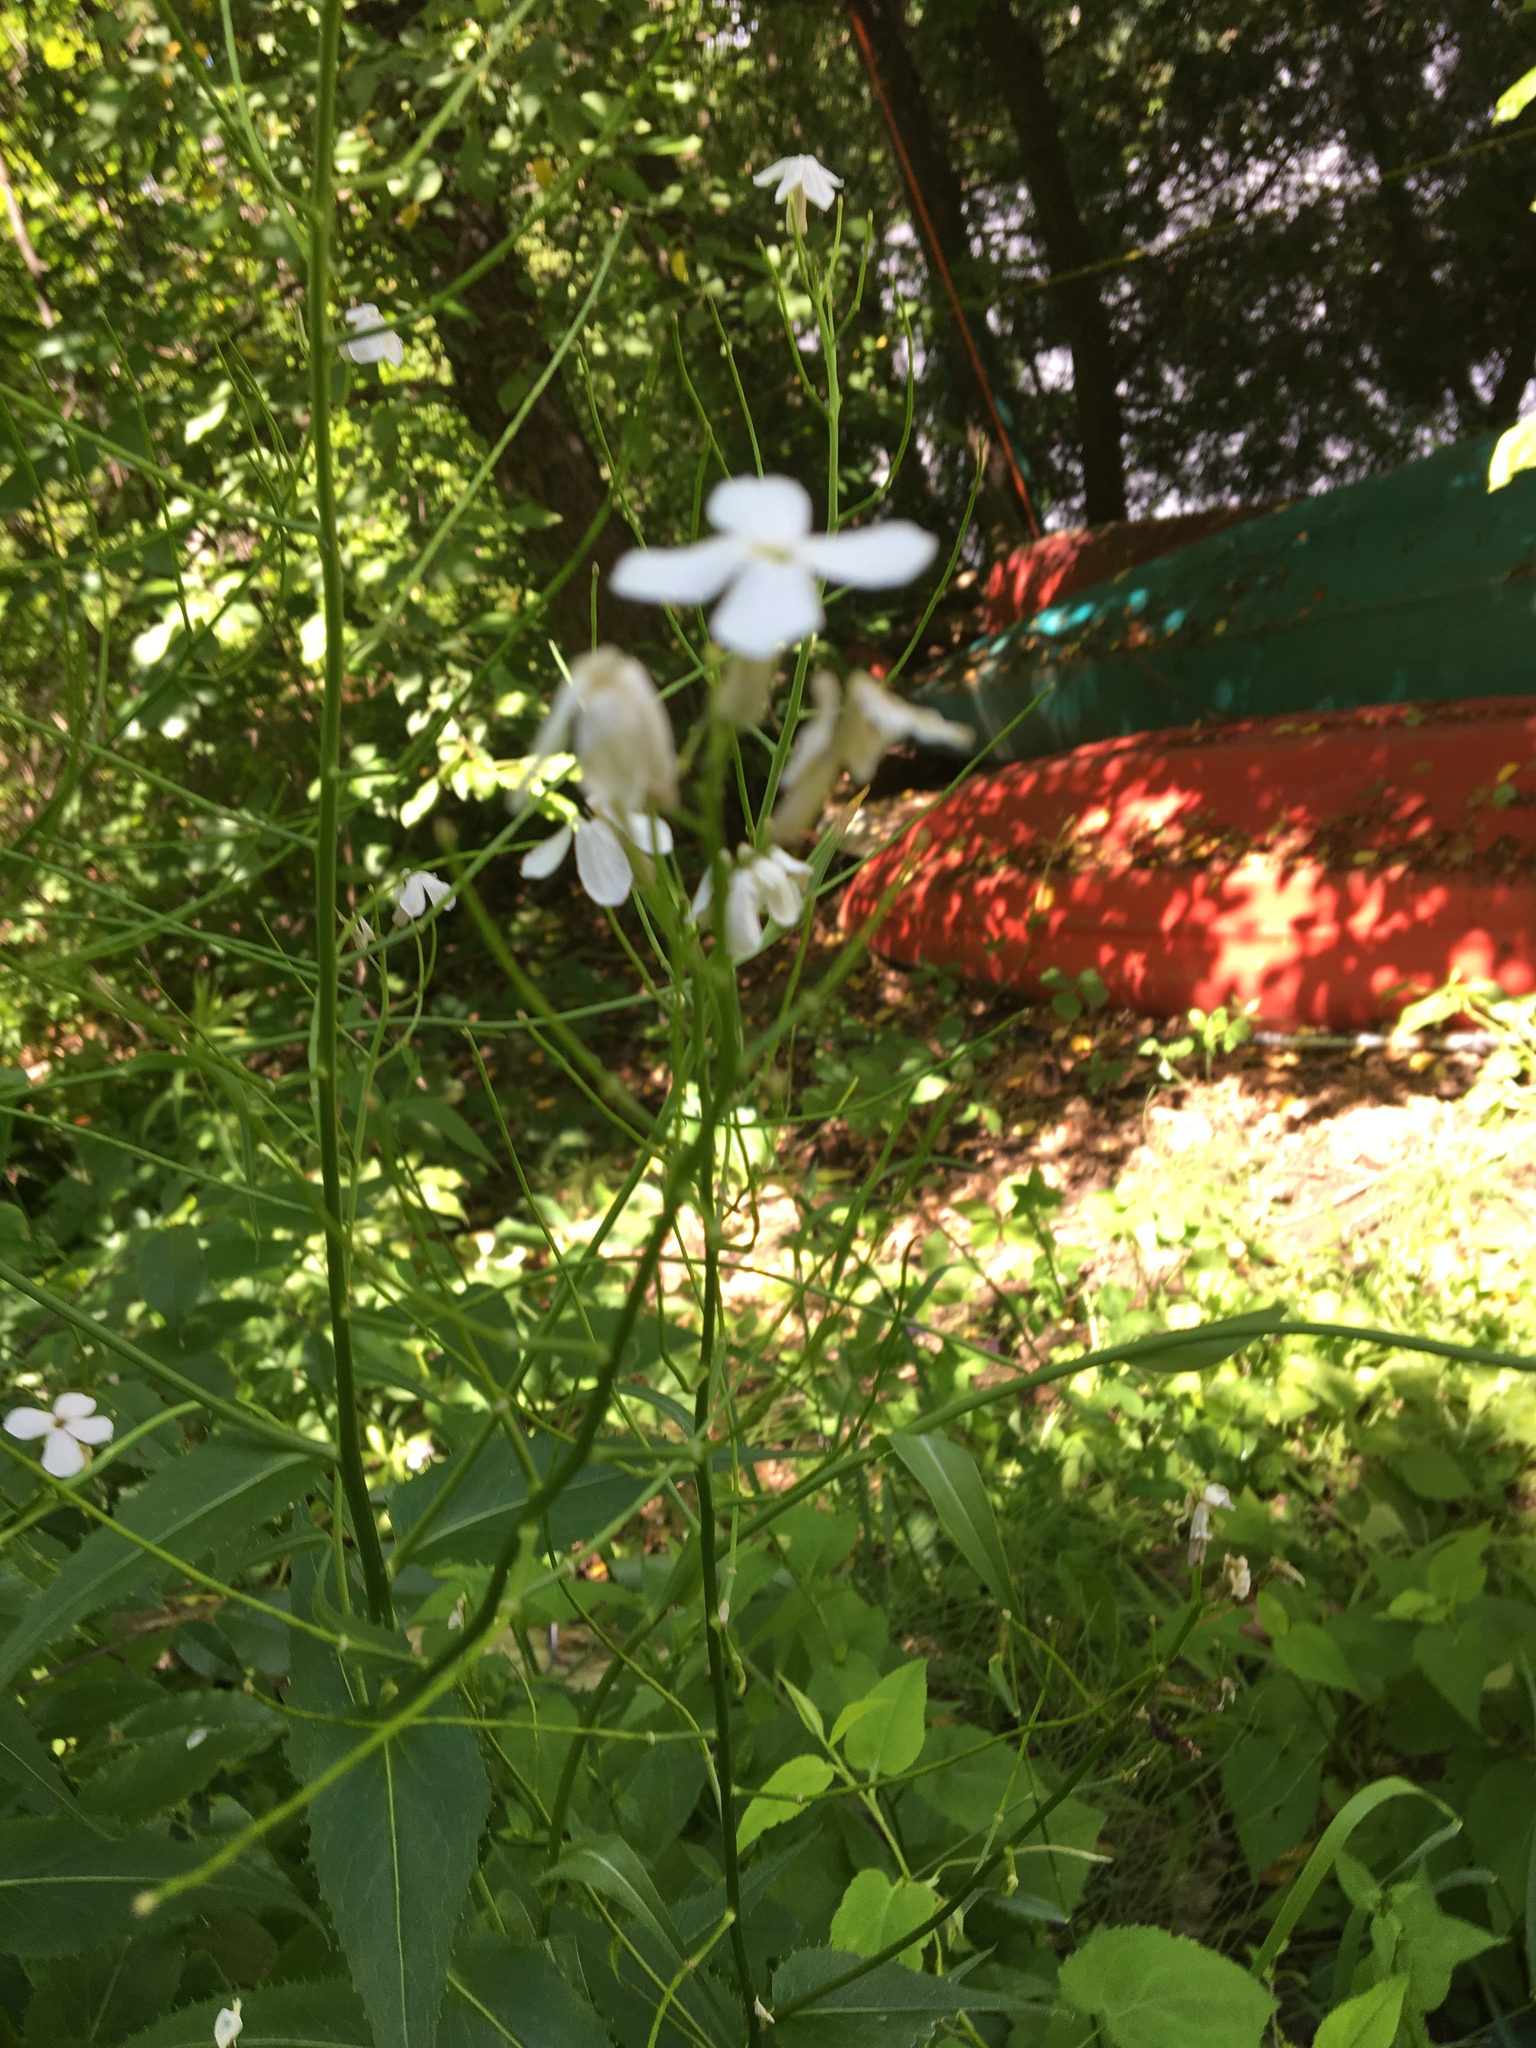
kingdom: Plantae
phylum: Tracheophyta
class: Magnoliopsida
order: Brassicales
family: Brassicaceae
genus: Hesperis
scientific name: Hesperis matronalis
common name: Dame's-violet
